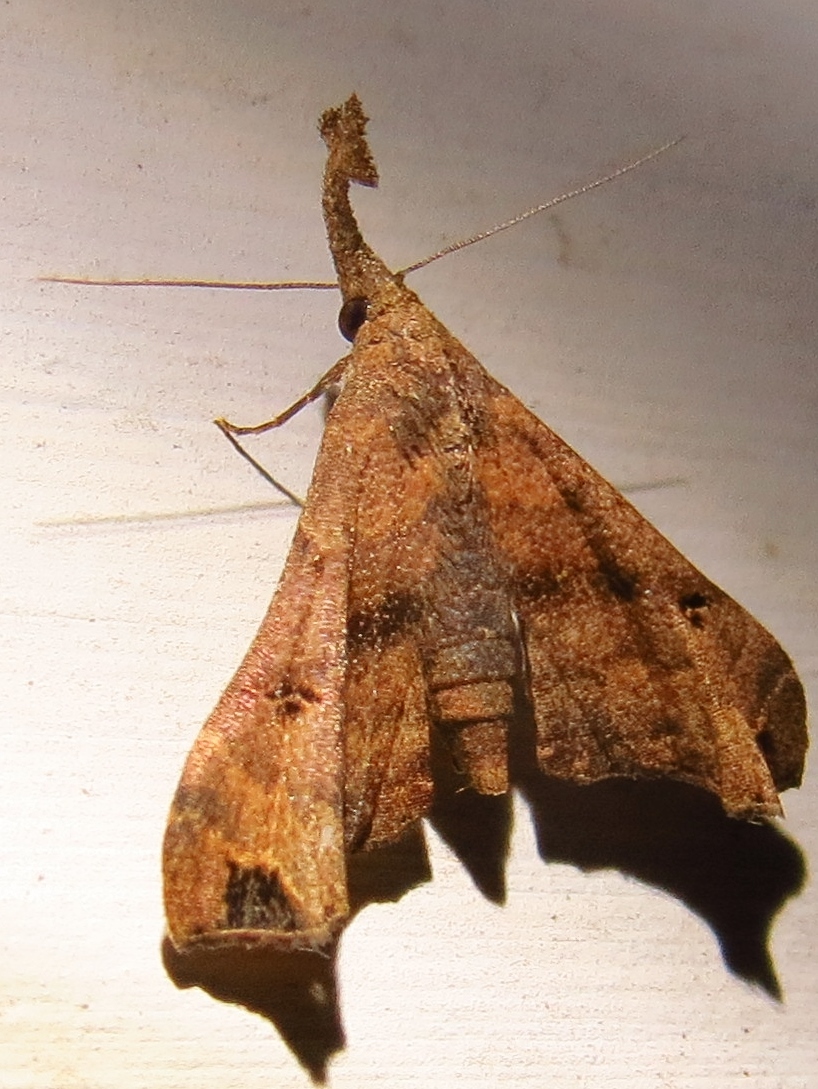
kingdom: Animalia
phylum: Arthropoda
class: Insecta
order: Lepidoptera
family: Erebidae
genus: Palthis
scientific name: Palthis asopialis
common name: Faint-spotted palthis moth
